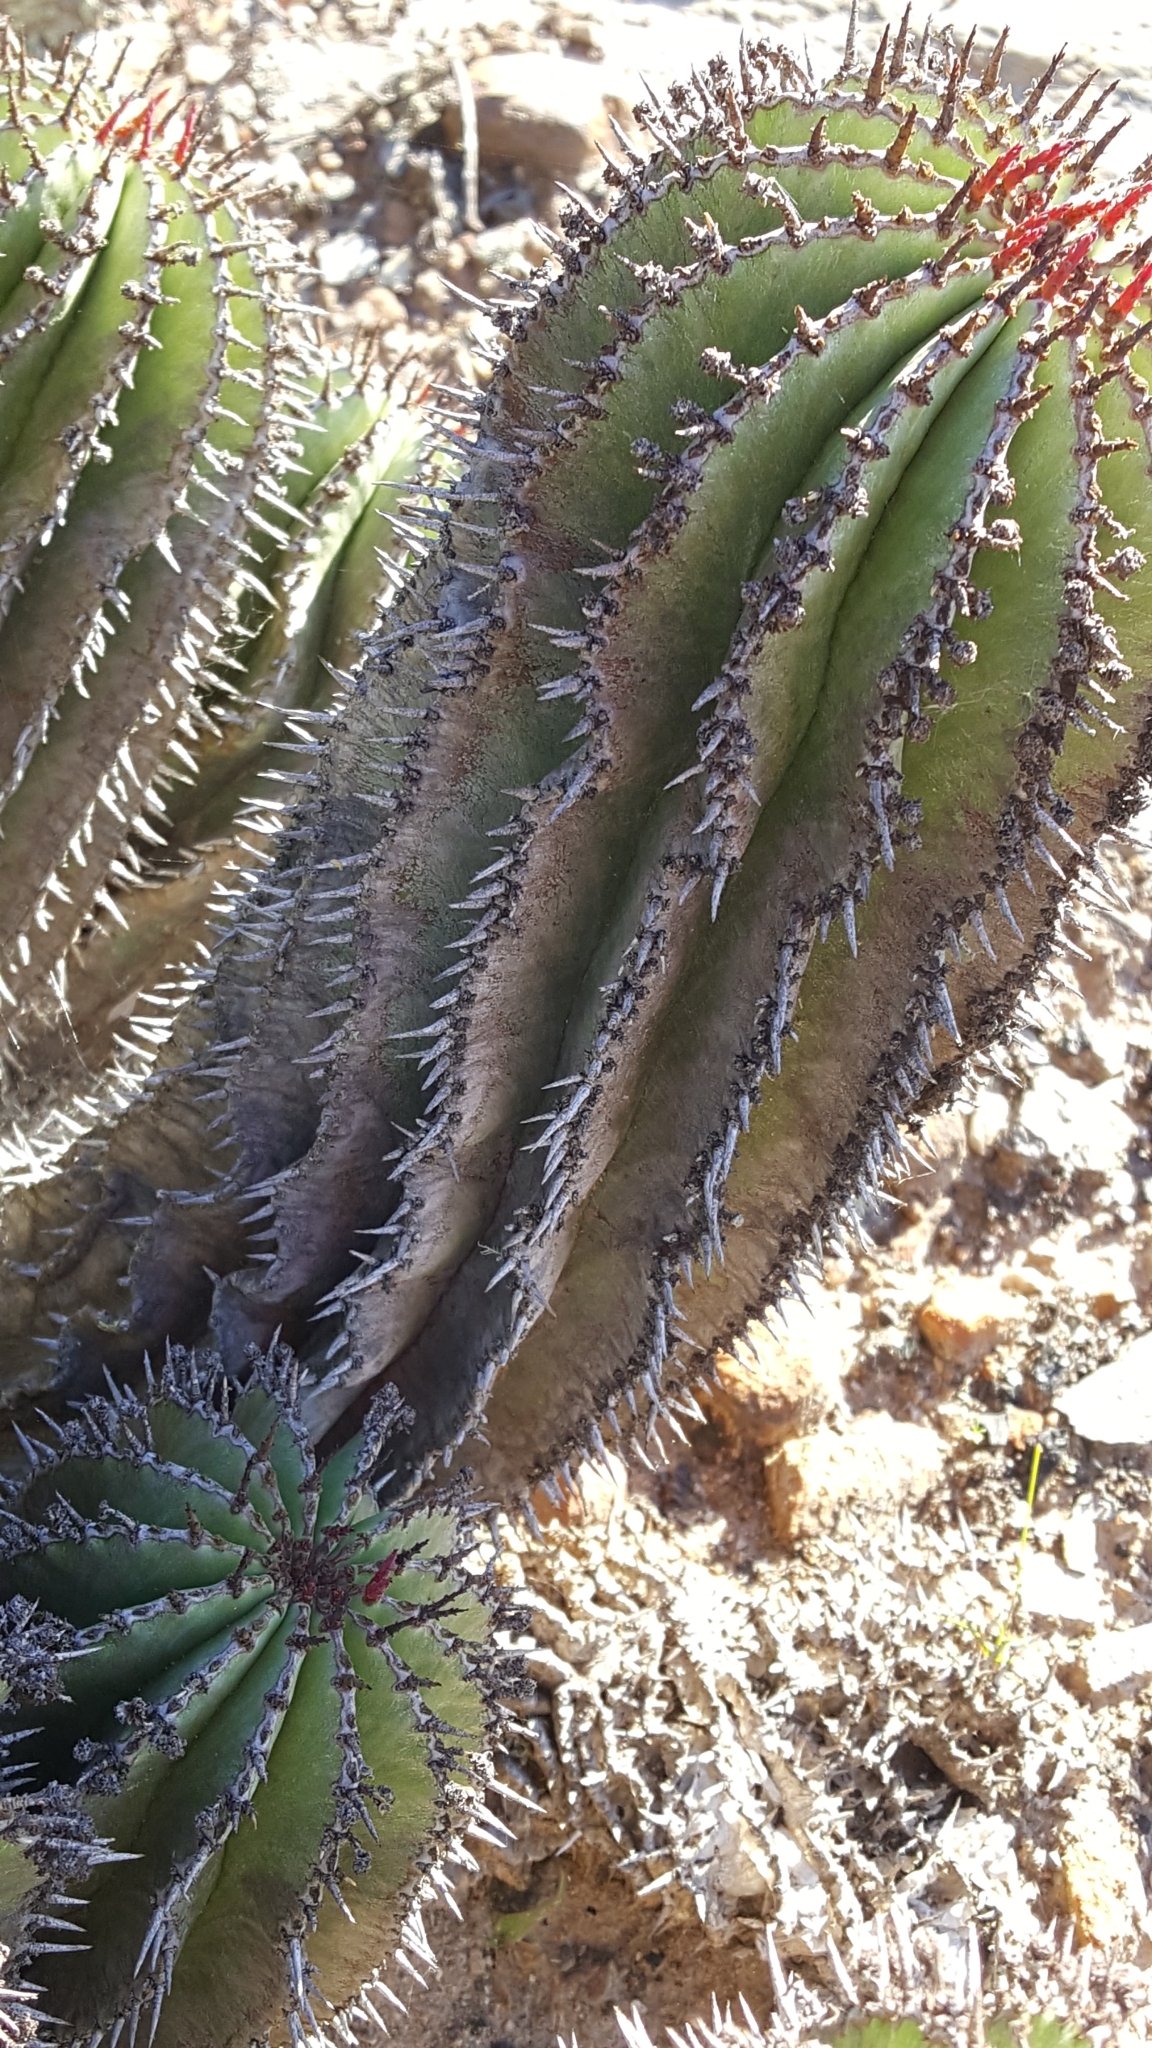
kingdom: Plantae
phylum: Tracheophyta
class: Magnoliopsida
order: Malpighiales
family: Euphorbiaceae
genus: Euphorbia
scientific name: Euphorbia polygona
